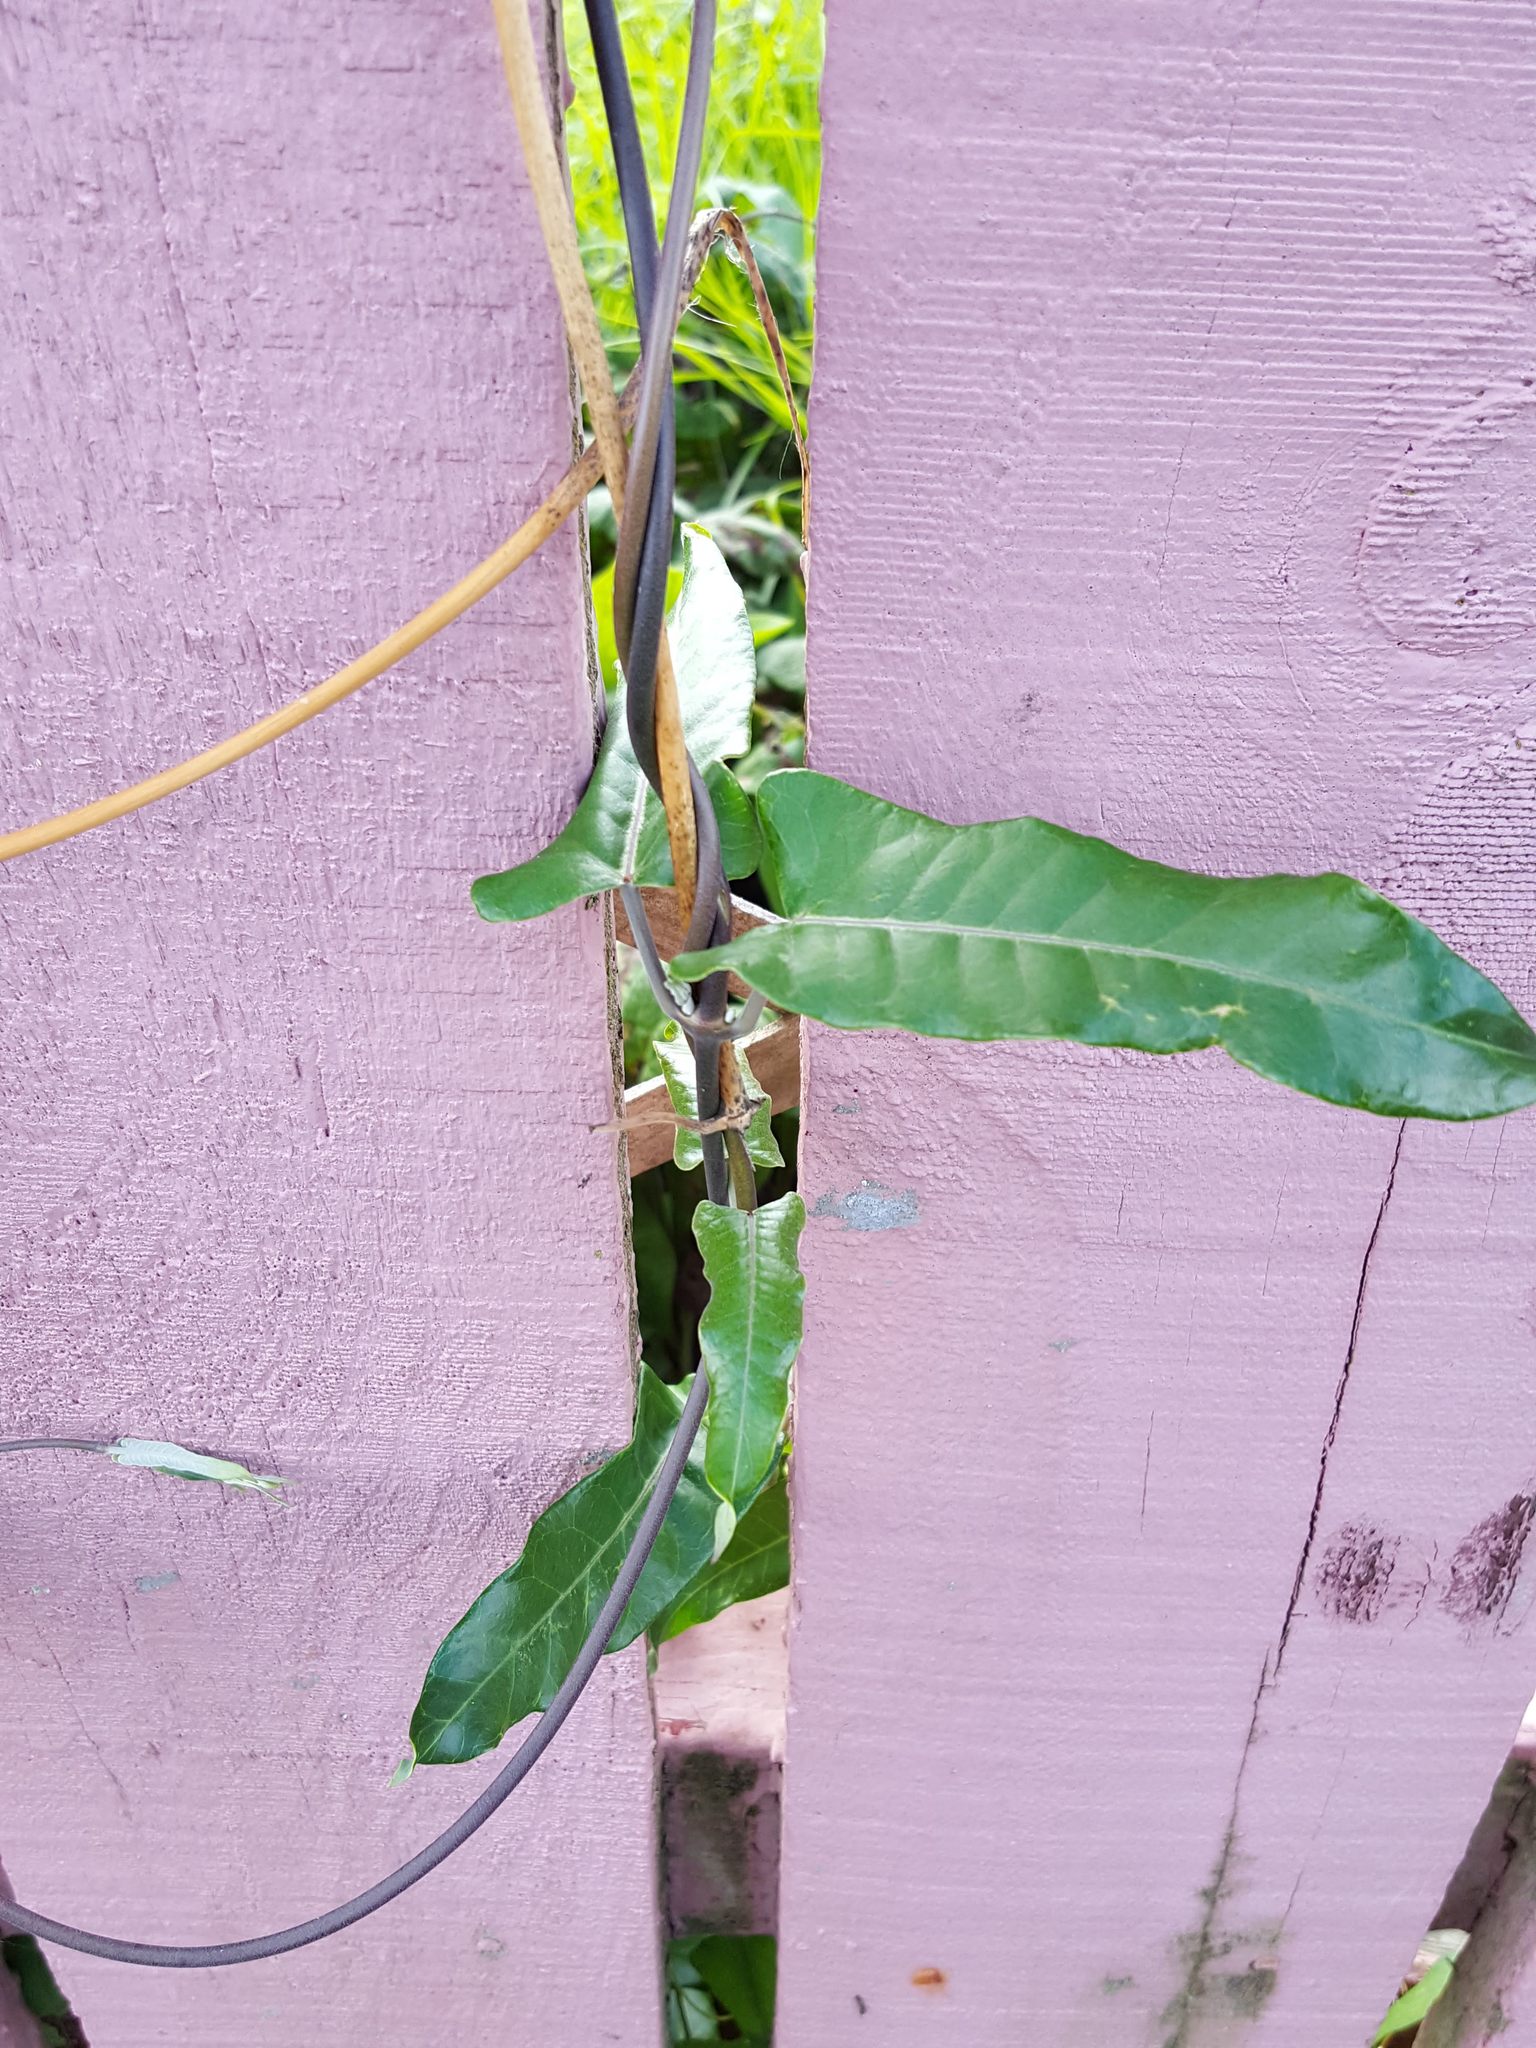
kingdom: Plantae
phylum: Tracheophyta
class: Magnoliopsida
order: Gentianales
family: Apocynaceae
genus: Araujia
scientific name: Araujia sericifera
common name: White bladderflower
